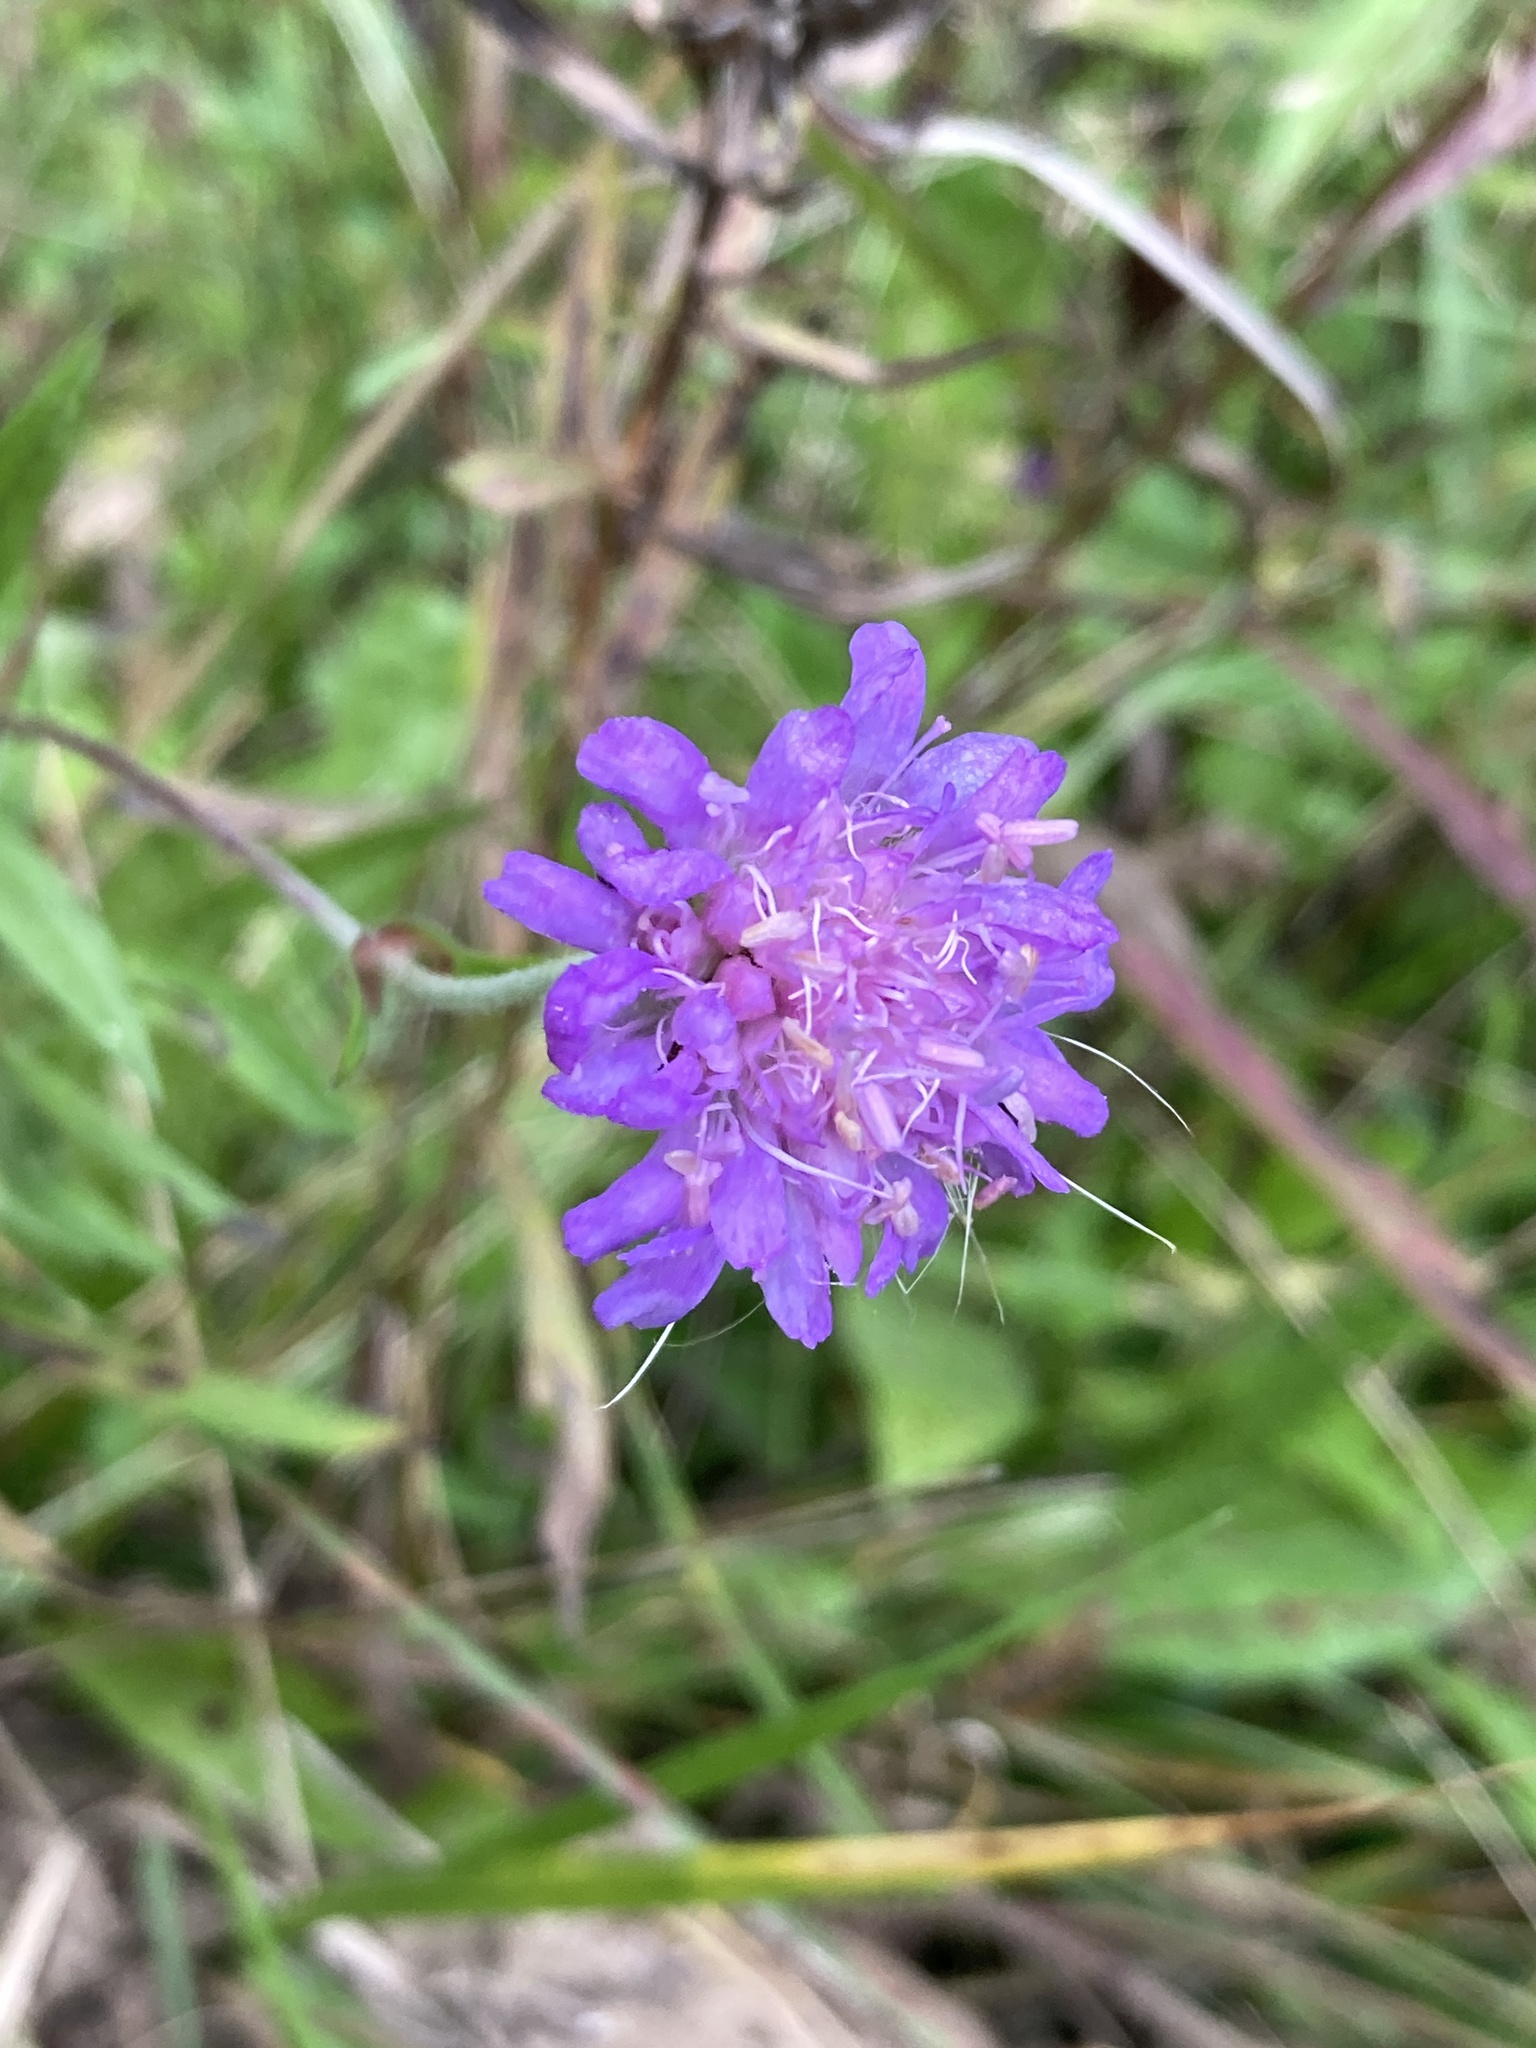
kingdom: Plantae
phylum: Tracheophyta
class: Magnoliopsida
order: Dipsacales
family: Caprifoliaceae
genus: Knautia
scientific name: Knautia arvensis
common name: Field scabiosa
